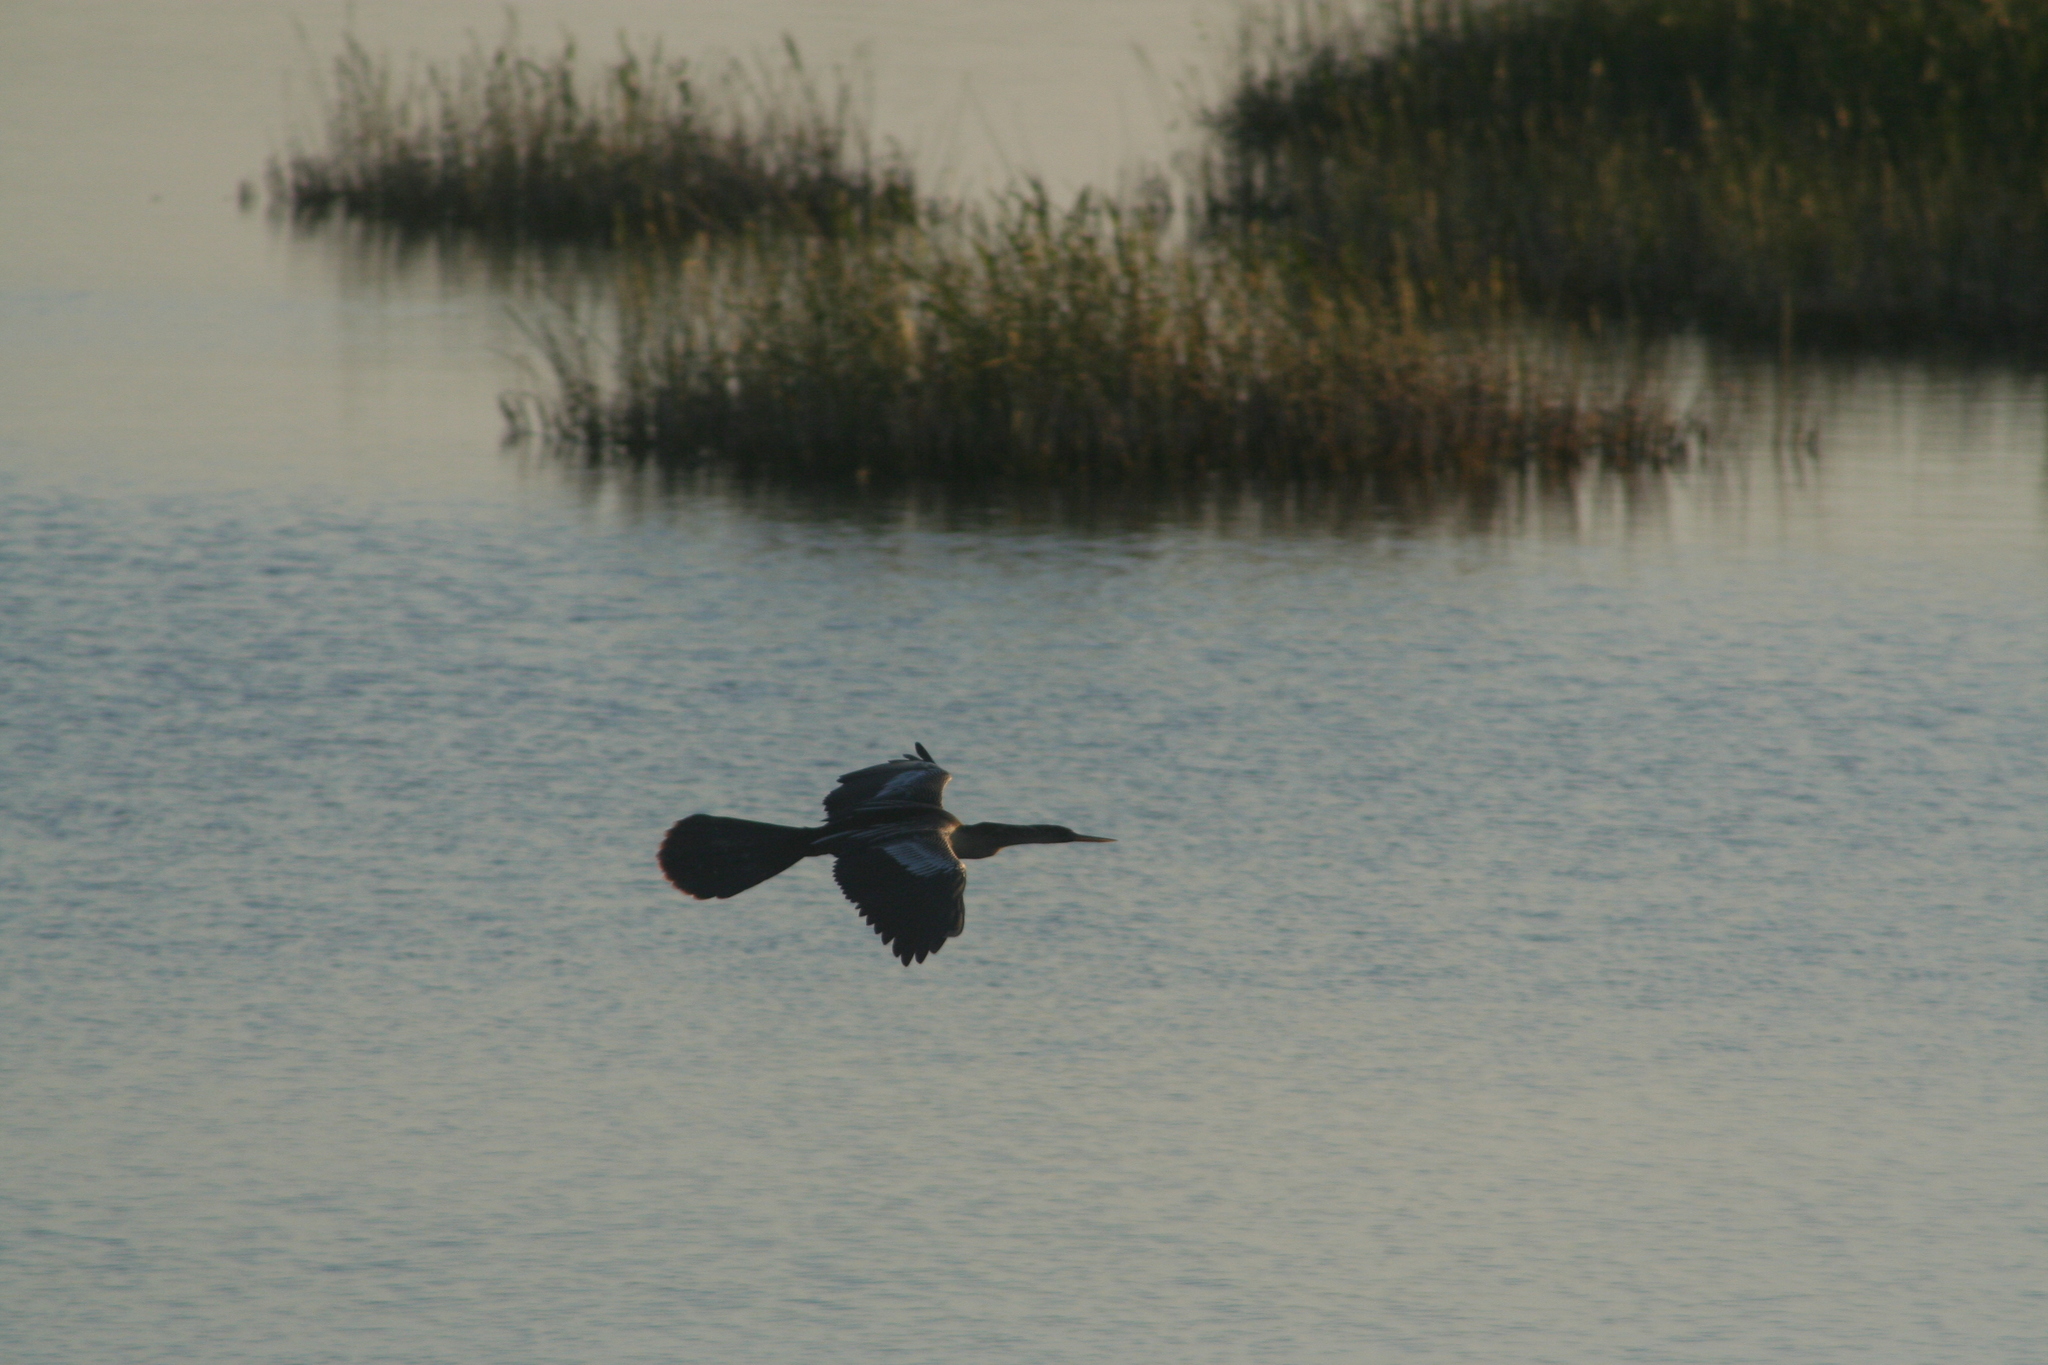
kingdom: Animalia
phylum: Chordata
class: Aves
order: Suliformes
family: Anhingidae
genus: Anhinga
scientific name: Anhinga anhinga
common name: Anhinga
